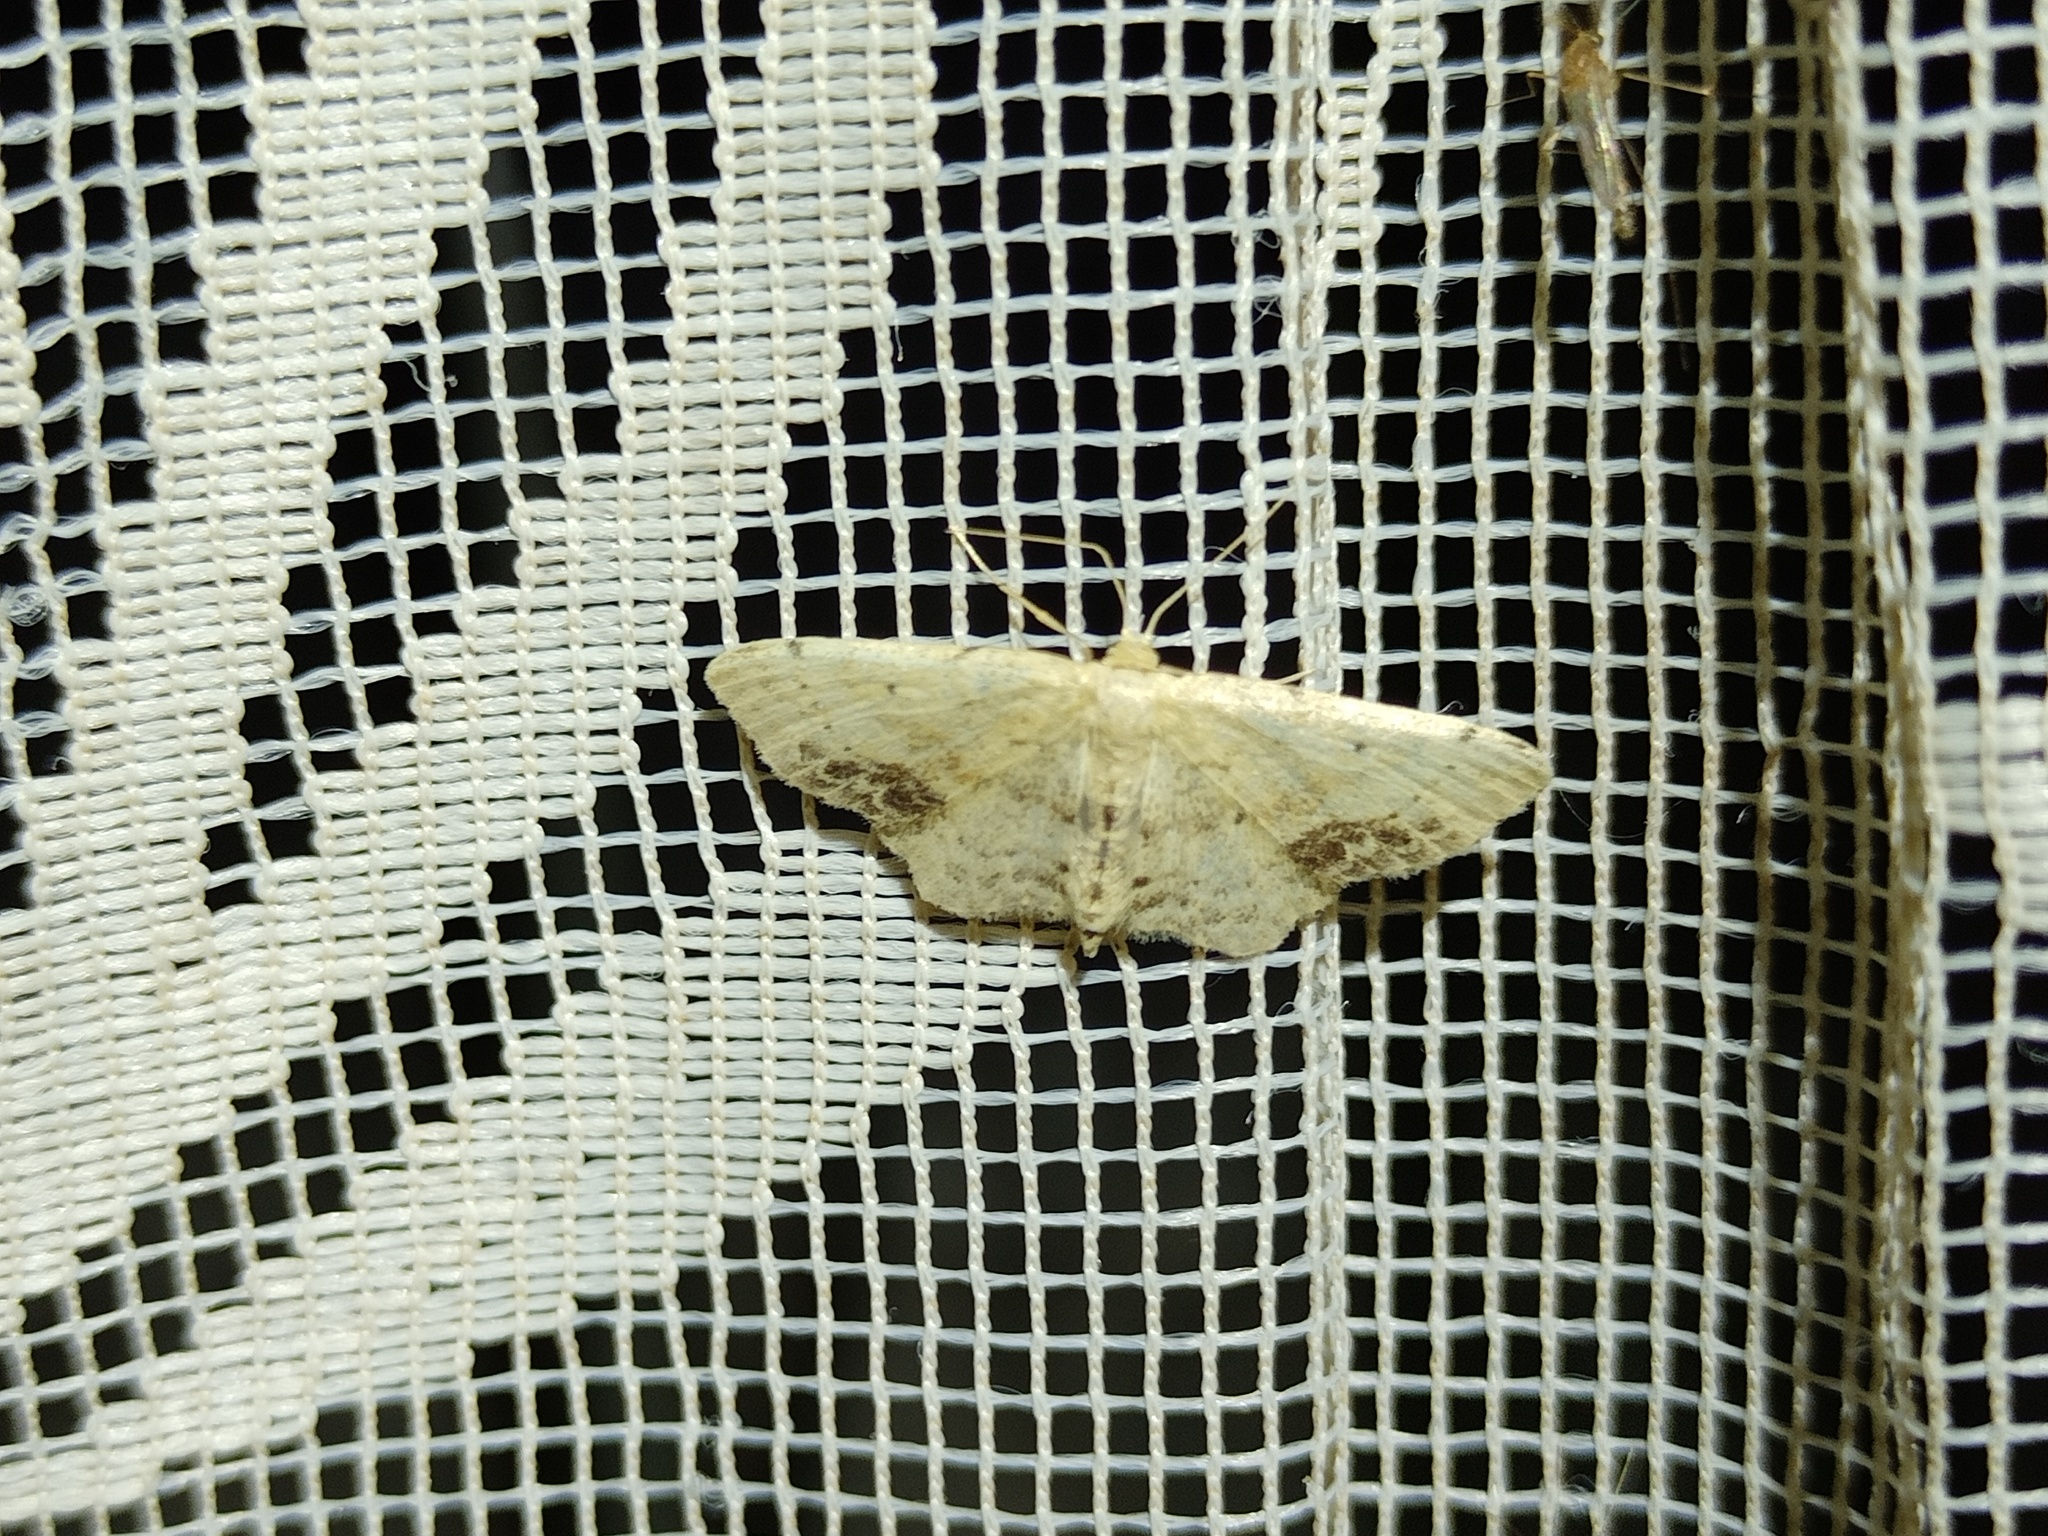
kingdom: Animalia
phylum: Arthropoda
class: Insecta
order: Lepidoptera
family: Geometridae
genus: Idaea
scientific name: Idaea dimidiata
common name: Single-dotted wave
